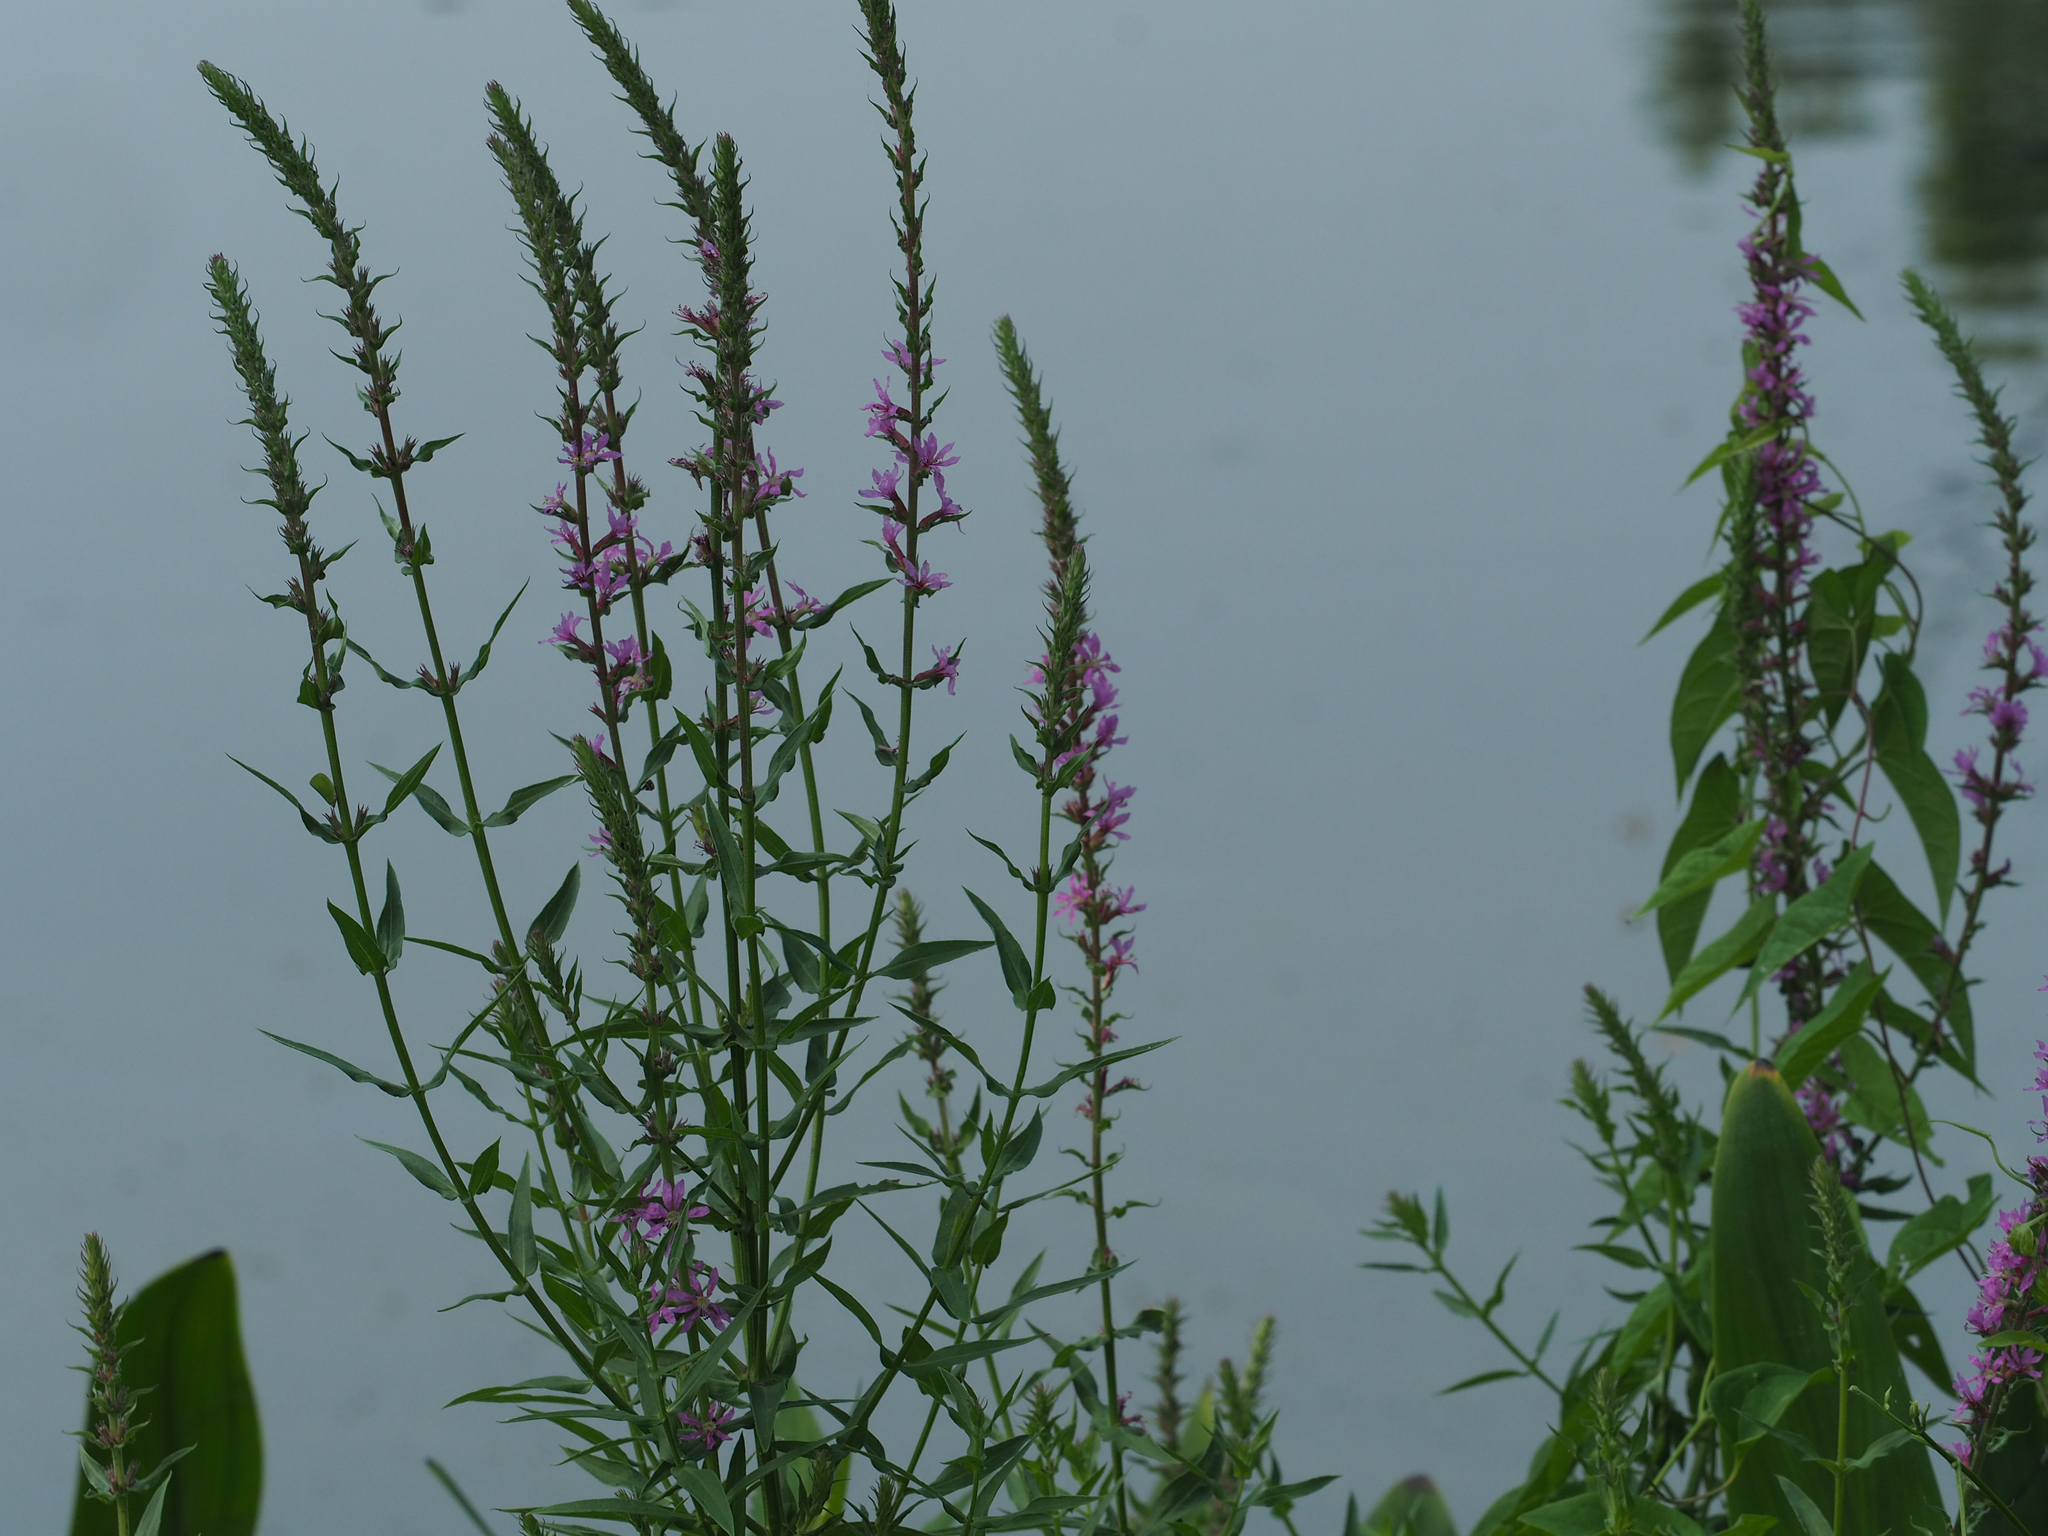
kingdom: Plantae
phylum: Tracheophyta
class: Magnoliopsida
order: Myrtales
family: Lythraceae
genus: Lythrum
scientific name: Lythrum salicaria
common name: Purple loosestrife
